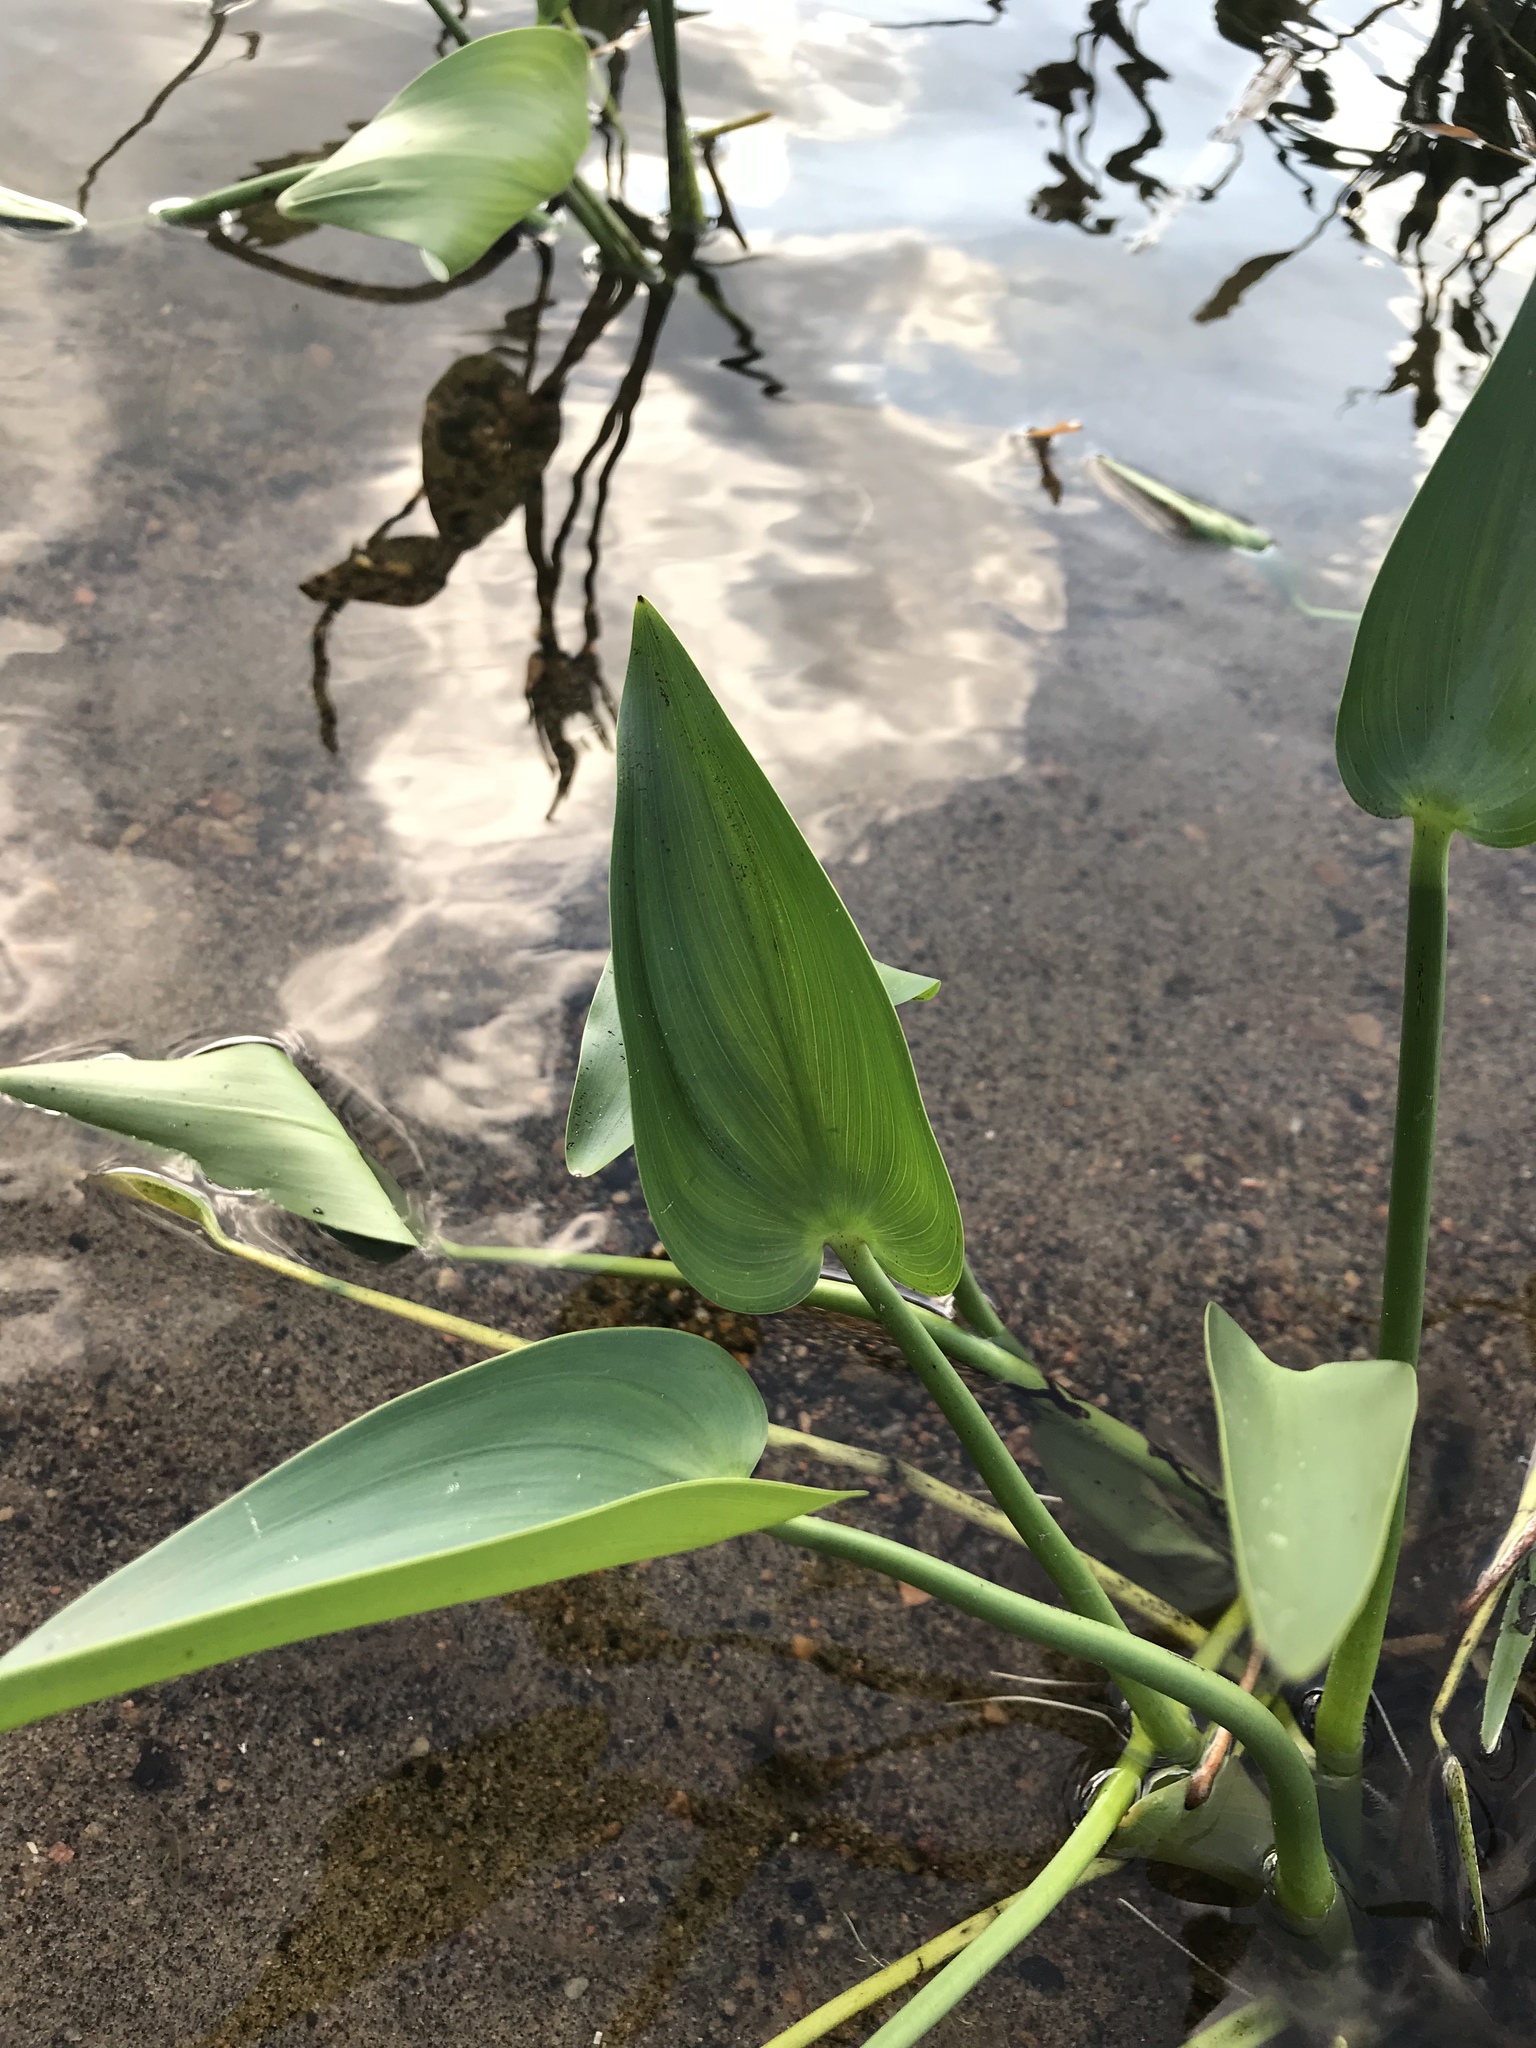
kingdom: Plantae
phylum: Tracheophyta
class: Liliopsida
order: Commelinales
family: Pontederiaceae
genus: Pontederia
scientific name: Pontederia cordata
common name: Pickerelweed
